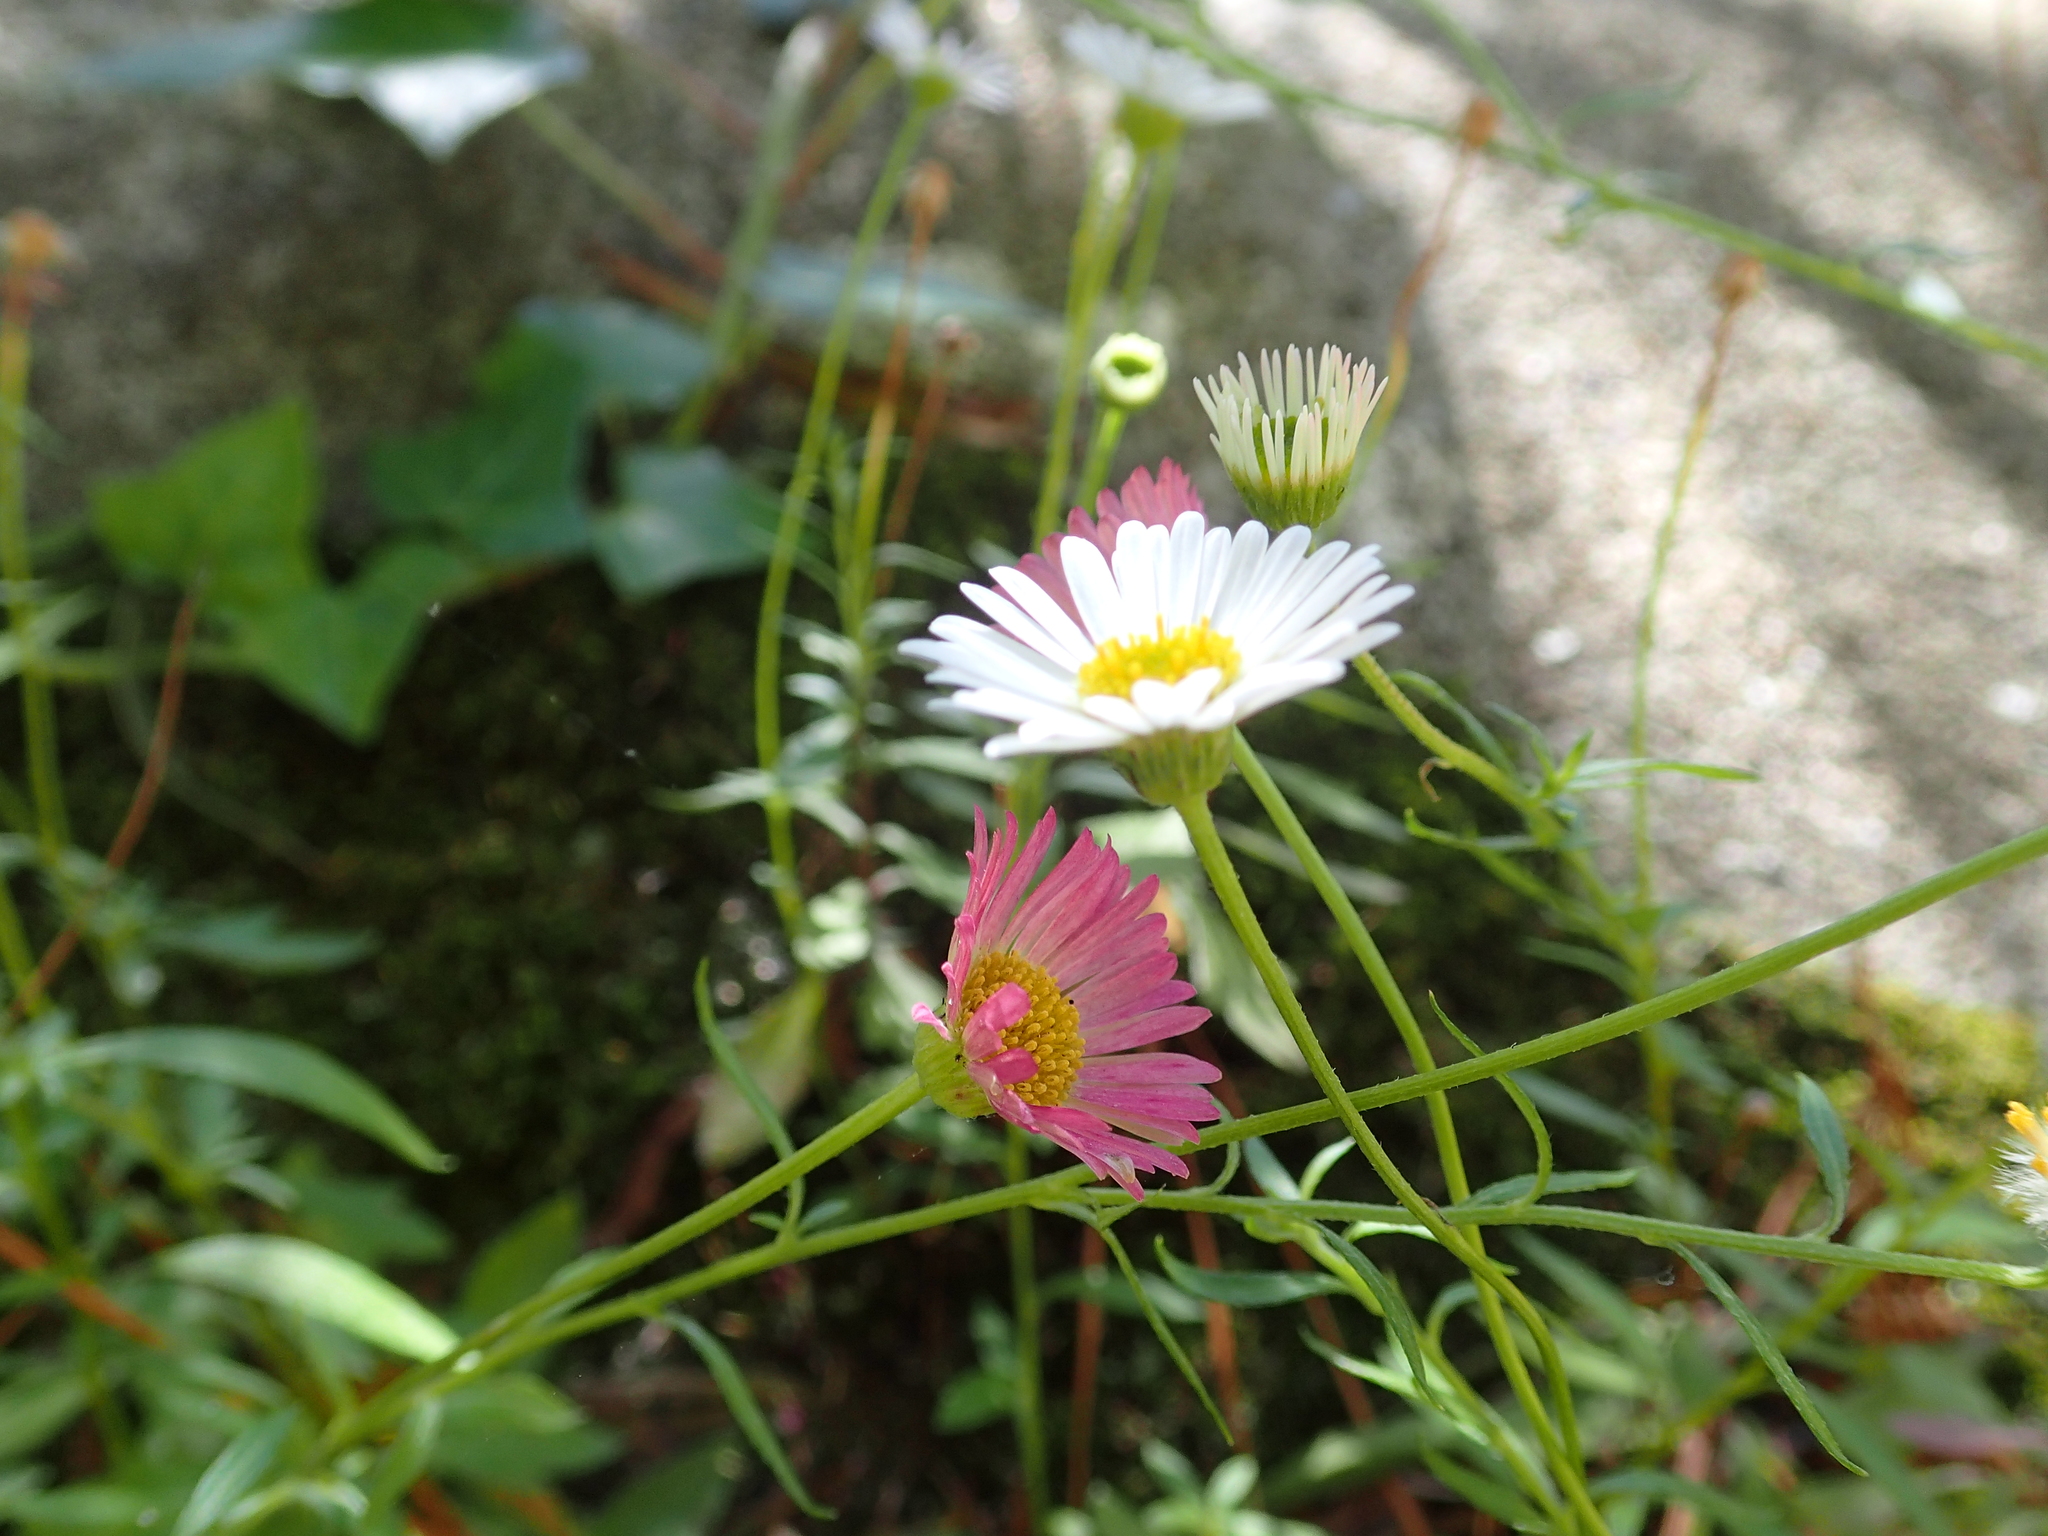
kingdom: Plantae
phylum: Tracheophyta
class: Magnoliopsida
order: Asterales
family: Asteraceae
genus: Erigeron
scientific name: Erigeron karvinskianus
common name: Mexican fleabane
